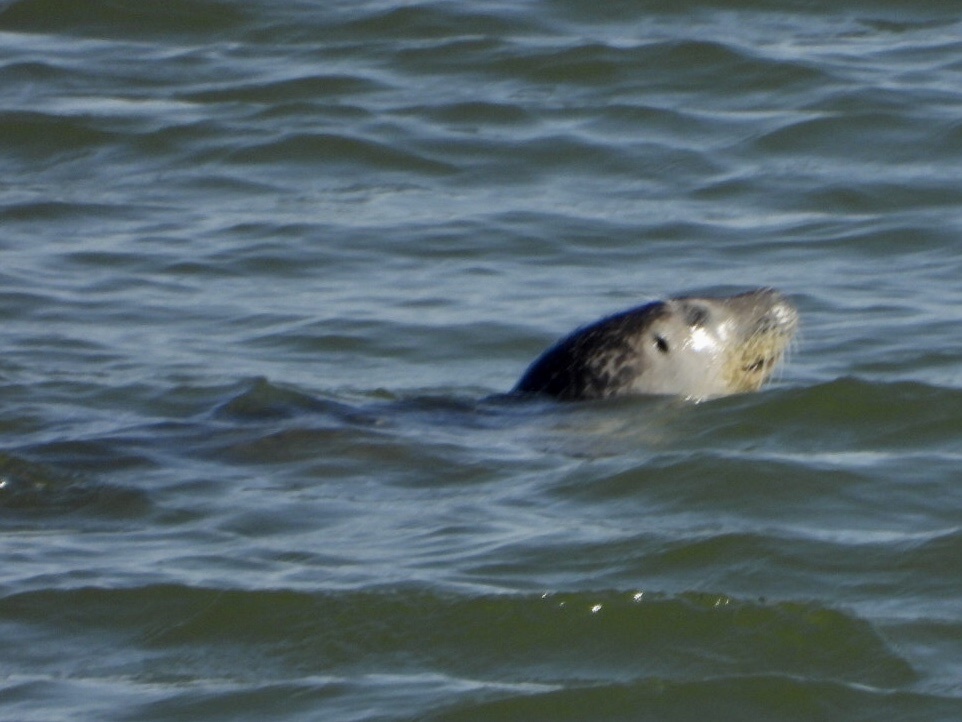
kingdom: Animalia
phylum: Chordata
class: Mammalia
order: Carnivora
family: Phocidae
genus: Phoca
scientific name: Phoca vitulina
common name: Harbor seal
